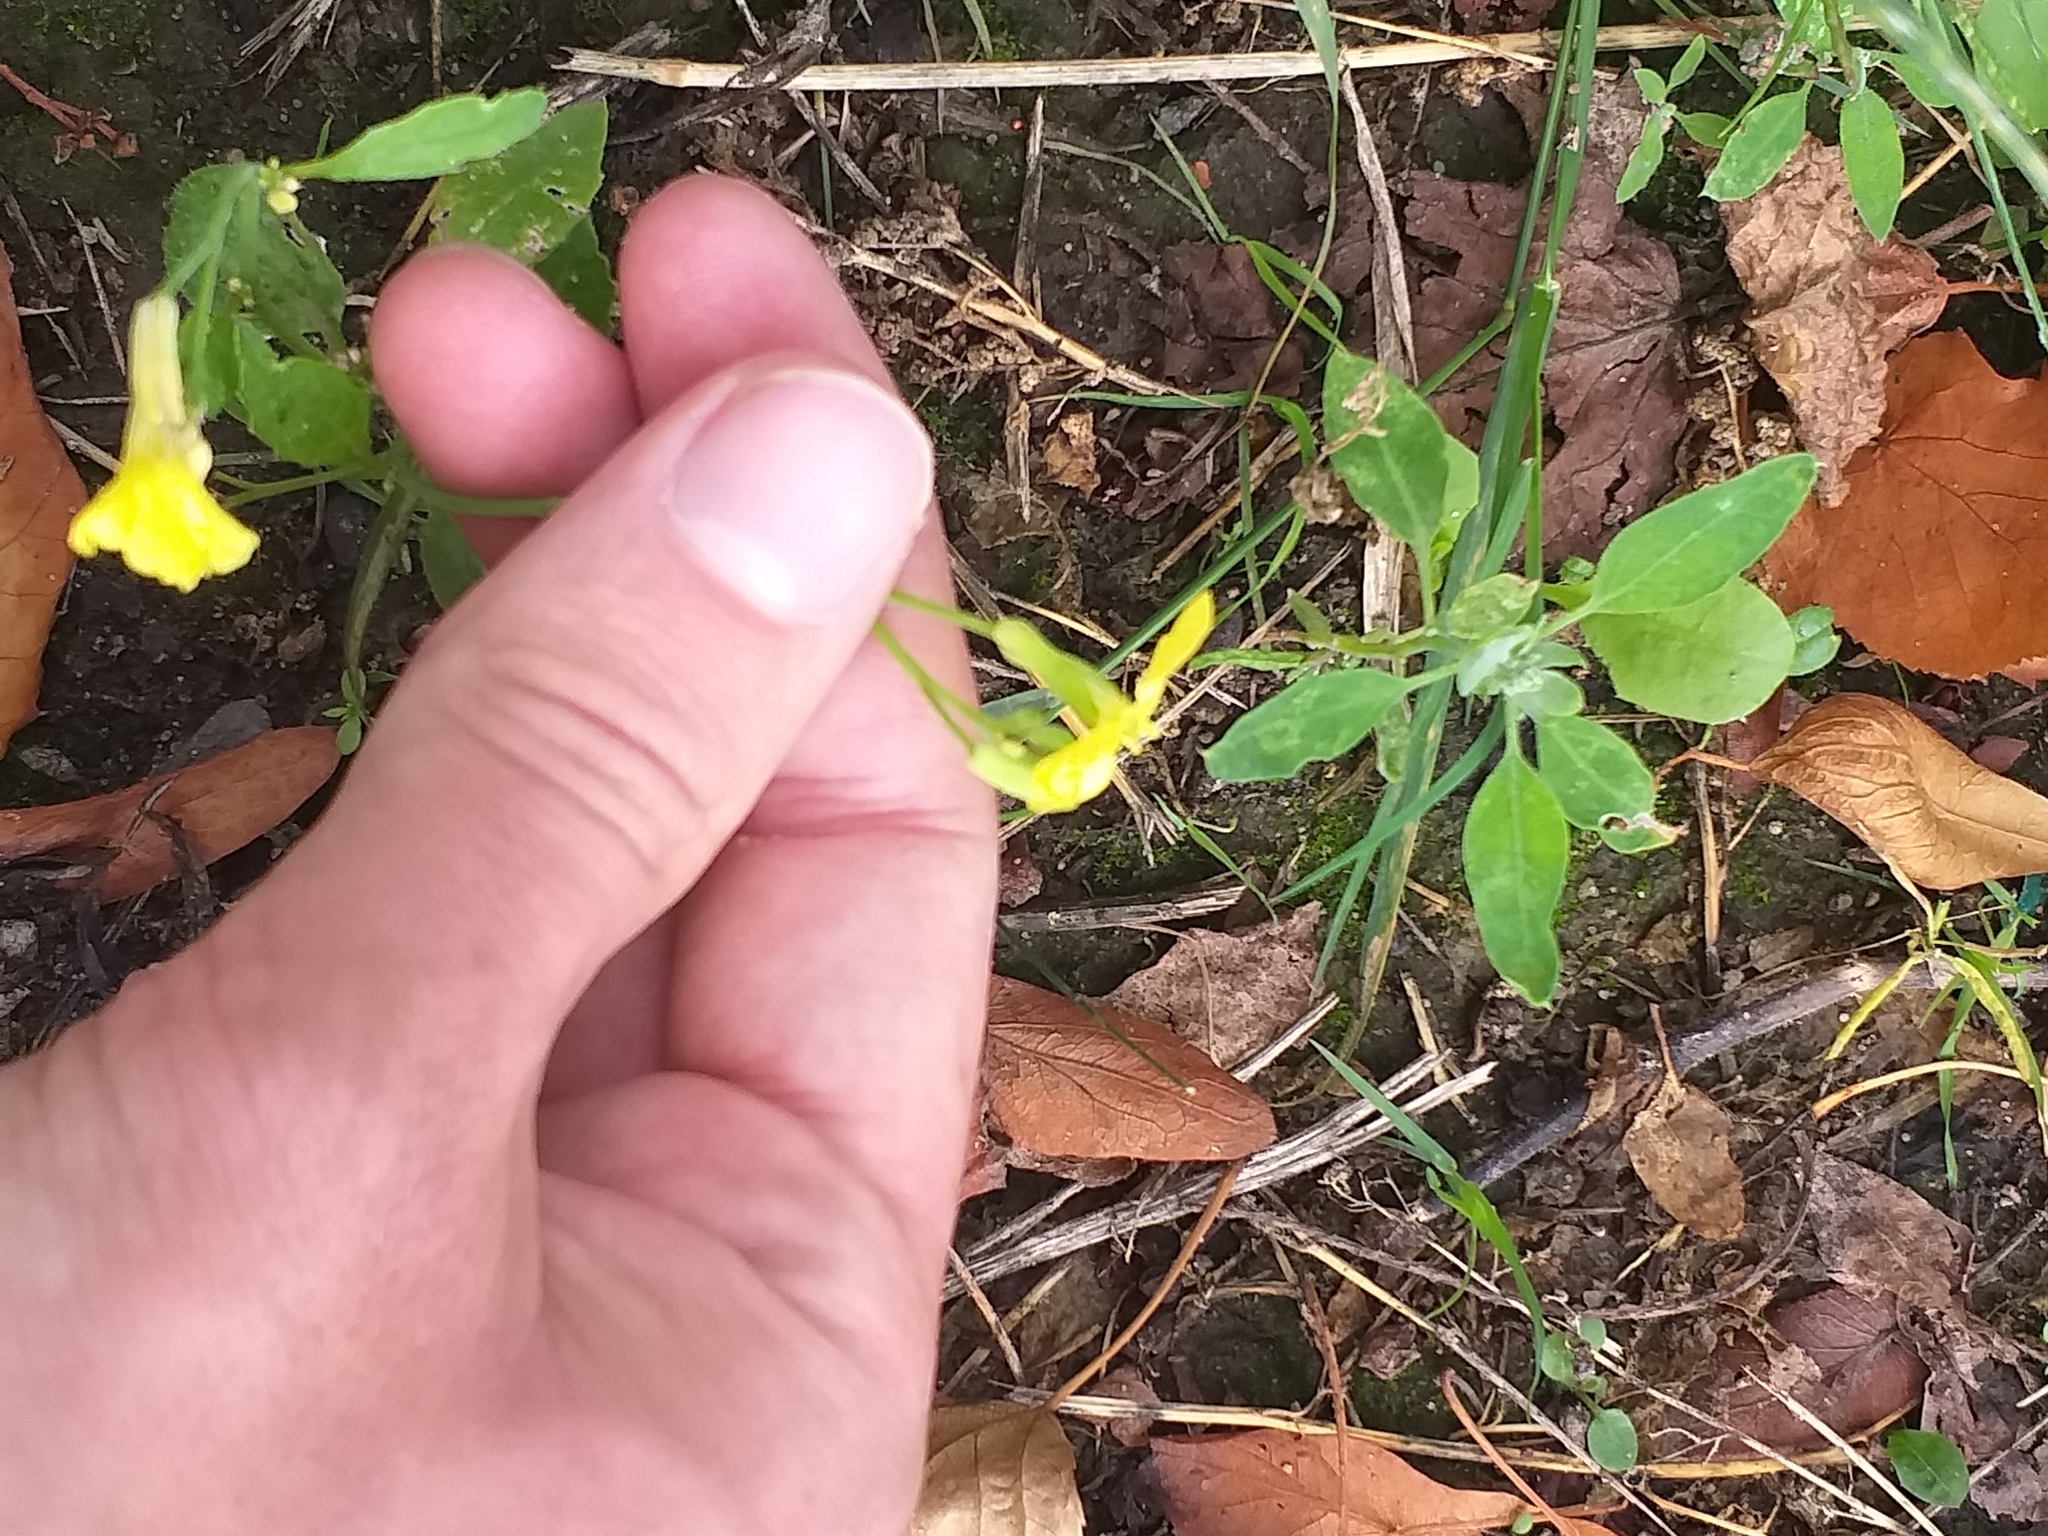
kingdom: Plantae
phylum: Tracheophyta
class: Magnoliopsida
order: Brassicales
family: Brassicaceae
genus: Raphanus
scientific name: Raphanus raphanistrum
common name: Wild radish
